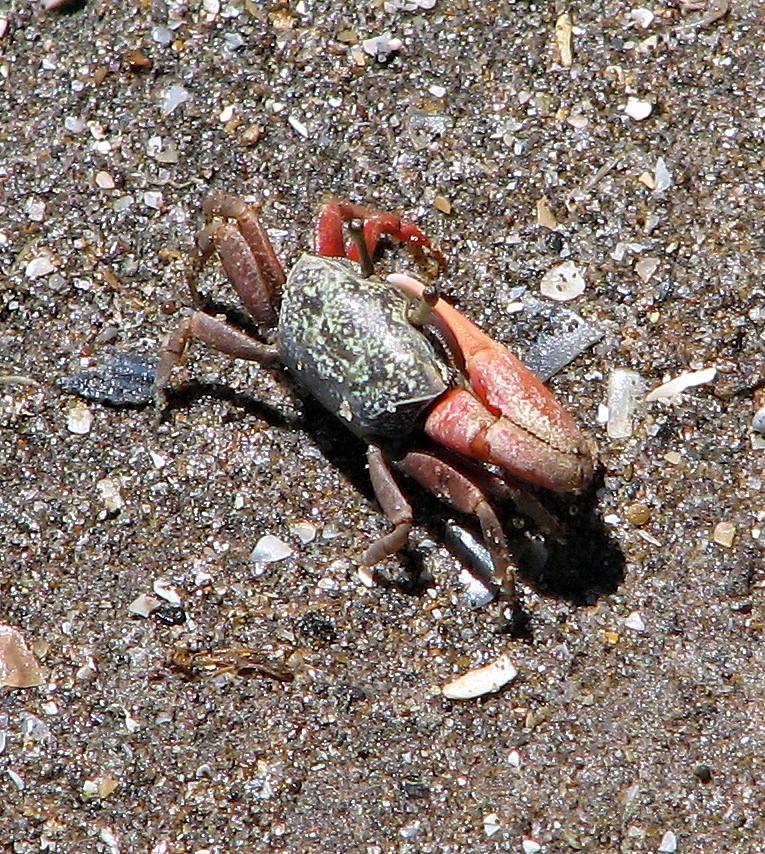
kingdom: Animalia
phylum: Arthropoda
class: Malacostraca
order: Decapoda
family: Ocypodidae
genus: Leptuca
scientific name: Leptuca uruguayensis
